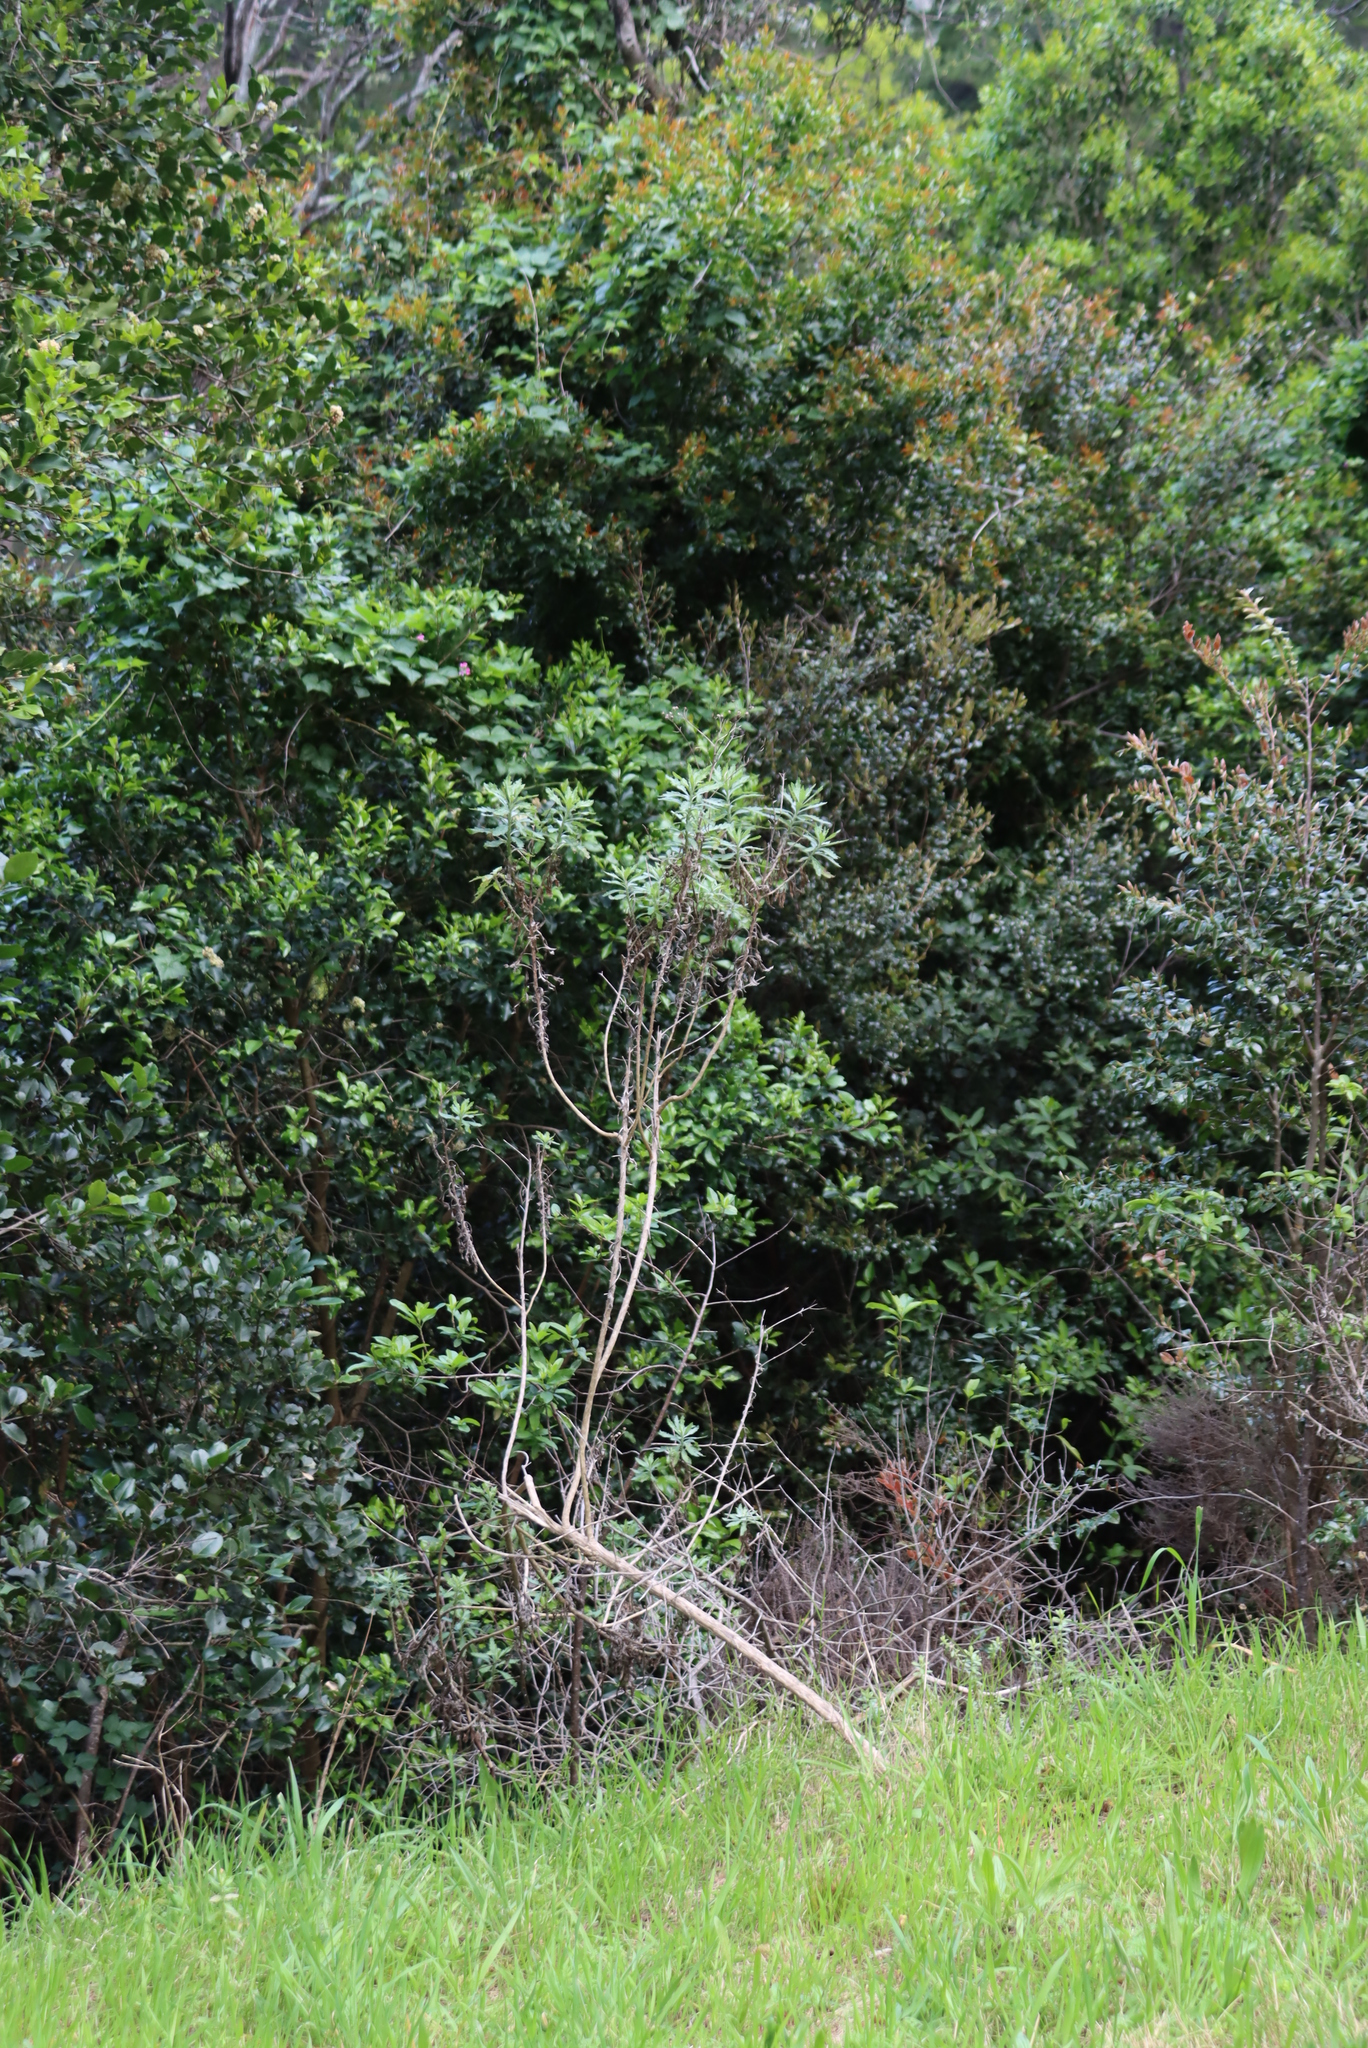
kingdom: Plantae
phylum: Tracheophyta
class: Magnoliopsida
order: Asterales
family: Asteraceae
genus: Senecio
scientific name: Senecio pterophorus
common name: Shoddy ragwort
